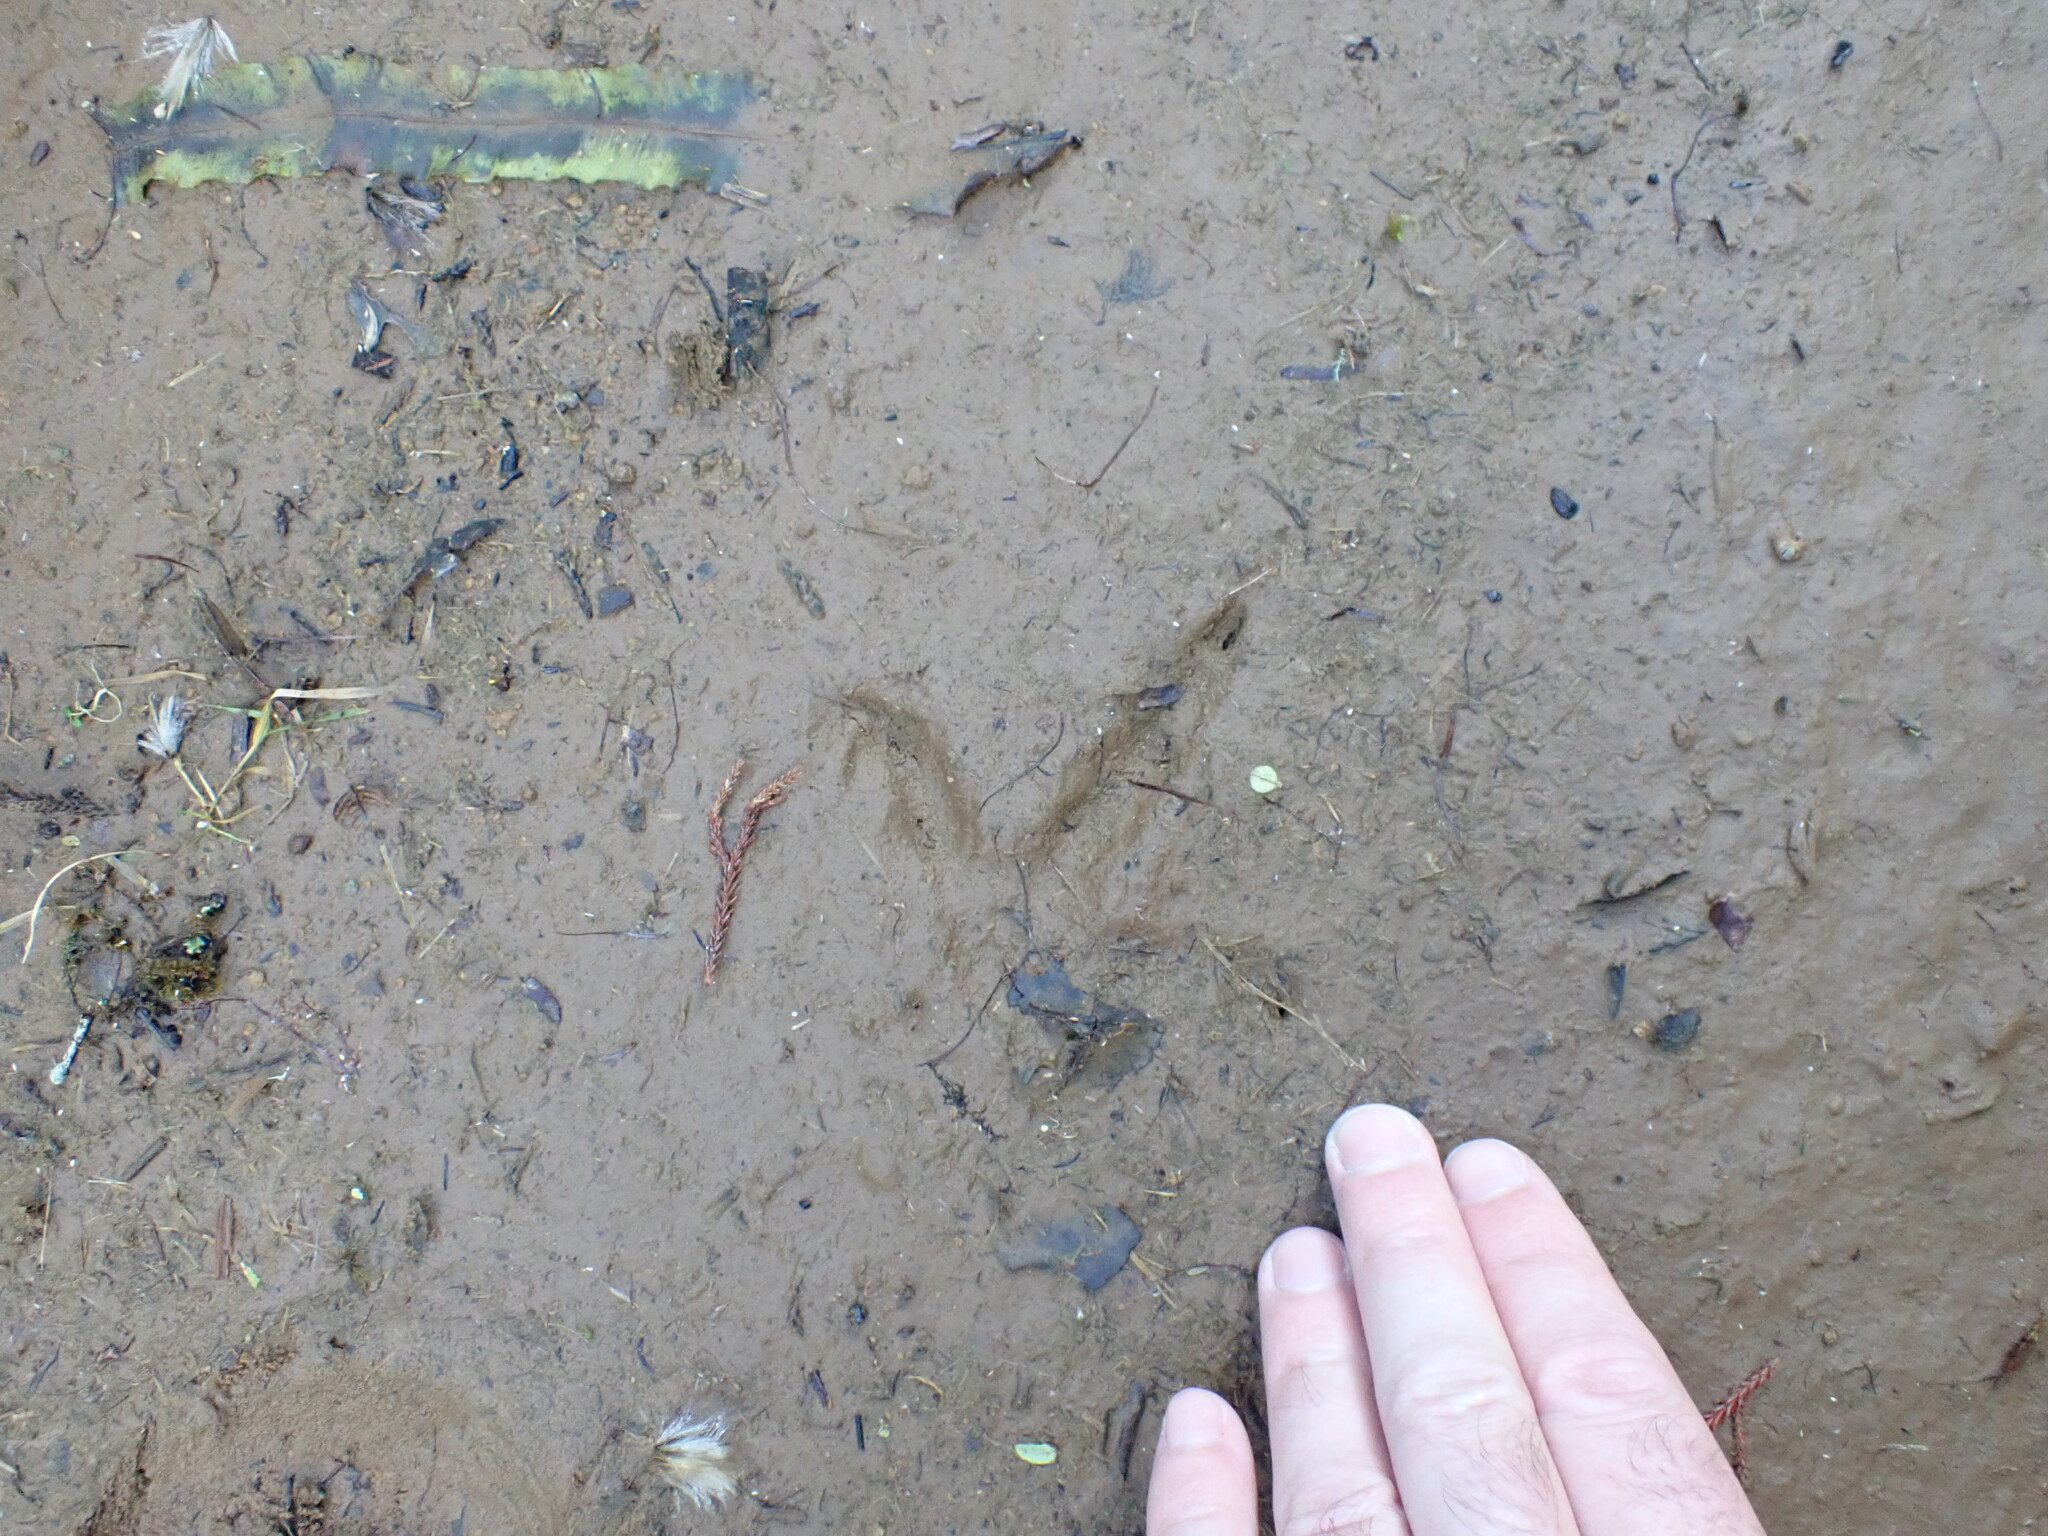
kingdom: Animalia
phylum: Chordata
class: Aves
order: Apterygiformes
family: Apterygidae
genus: Apteryx
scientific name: Apteryx mantelli
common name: North island brown kiwi
